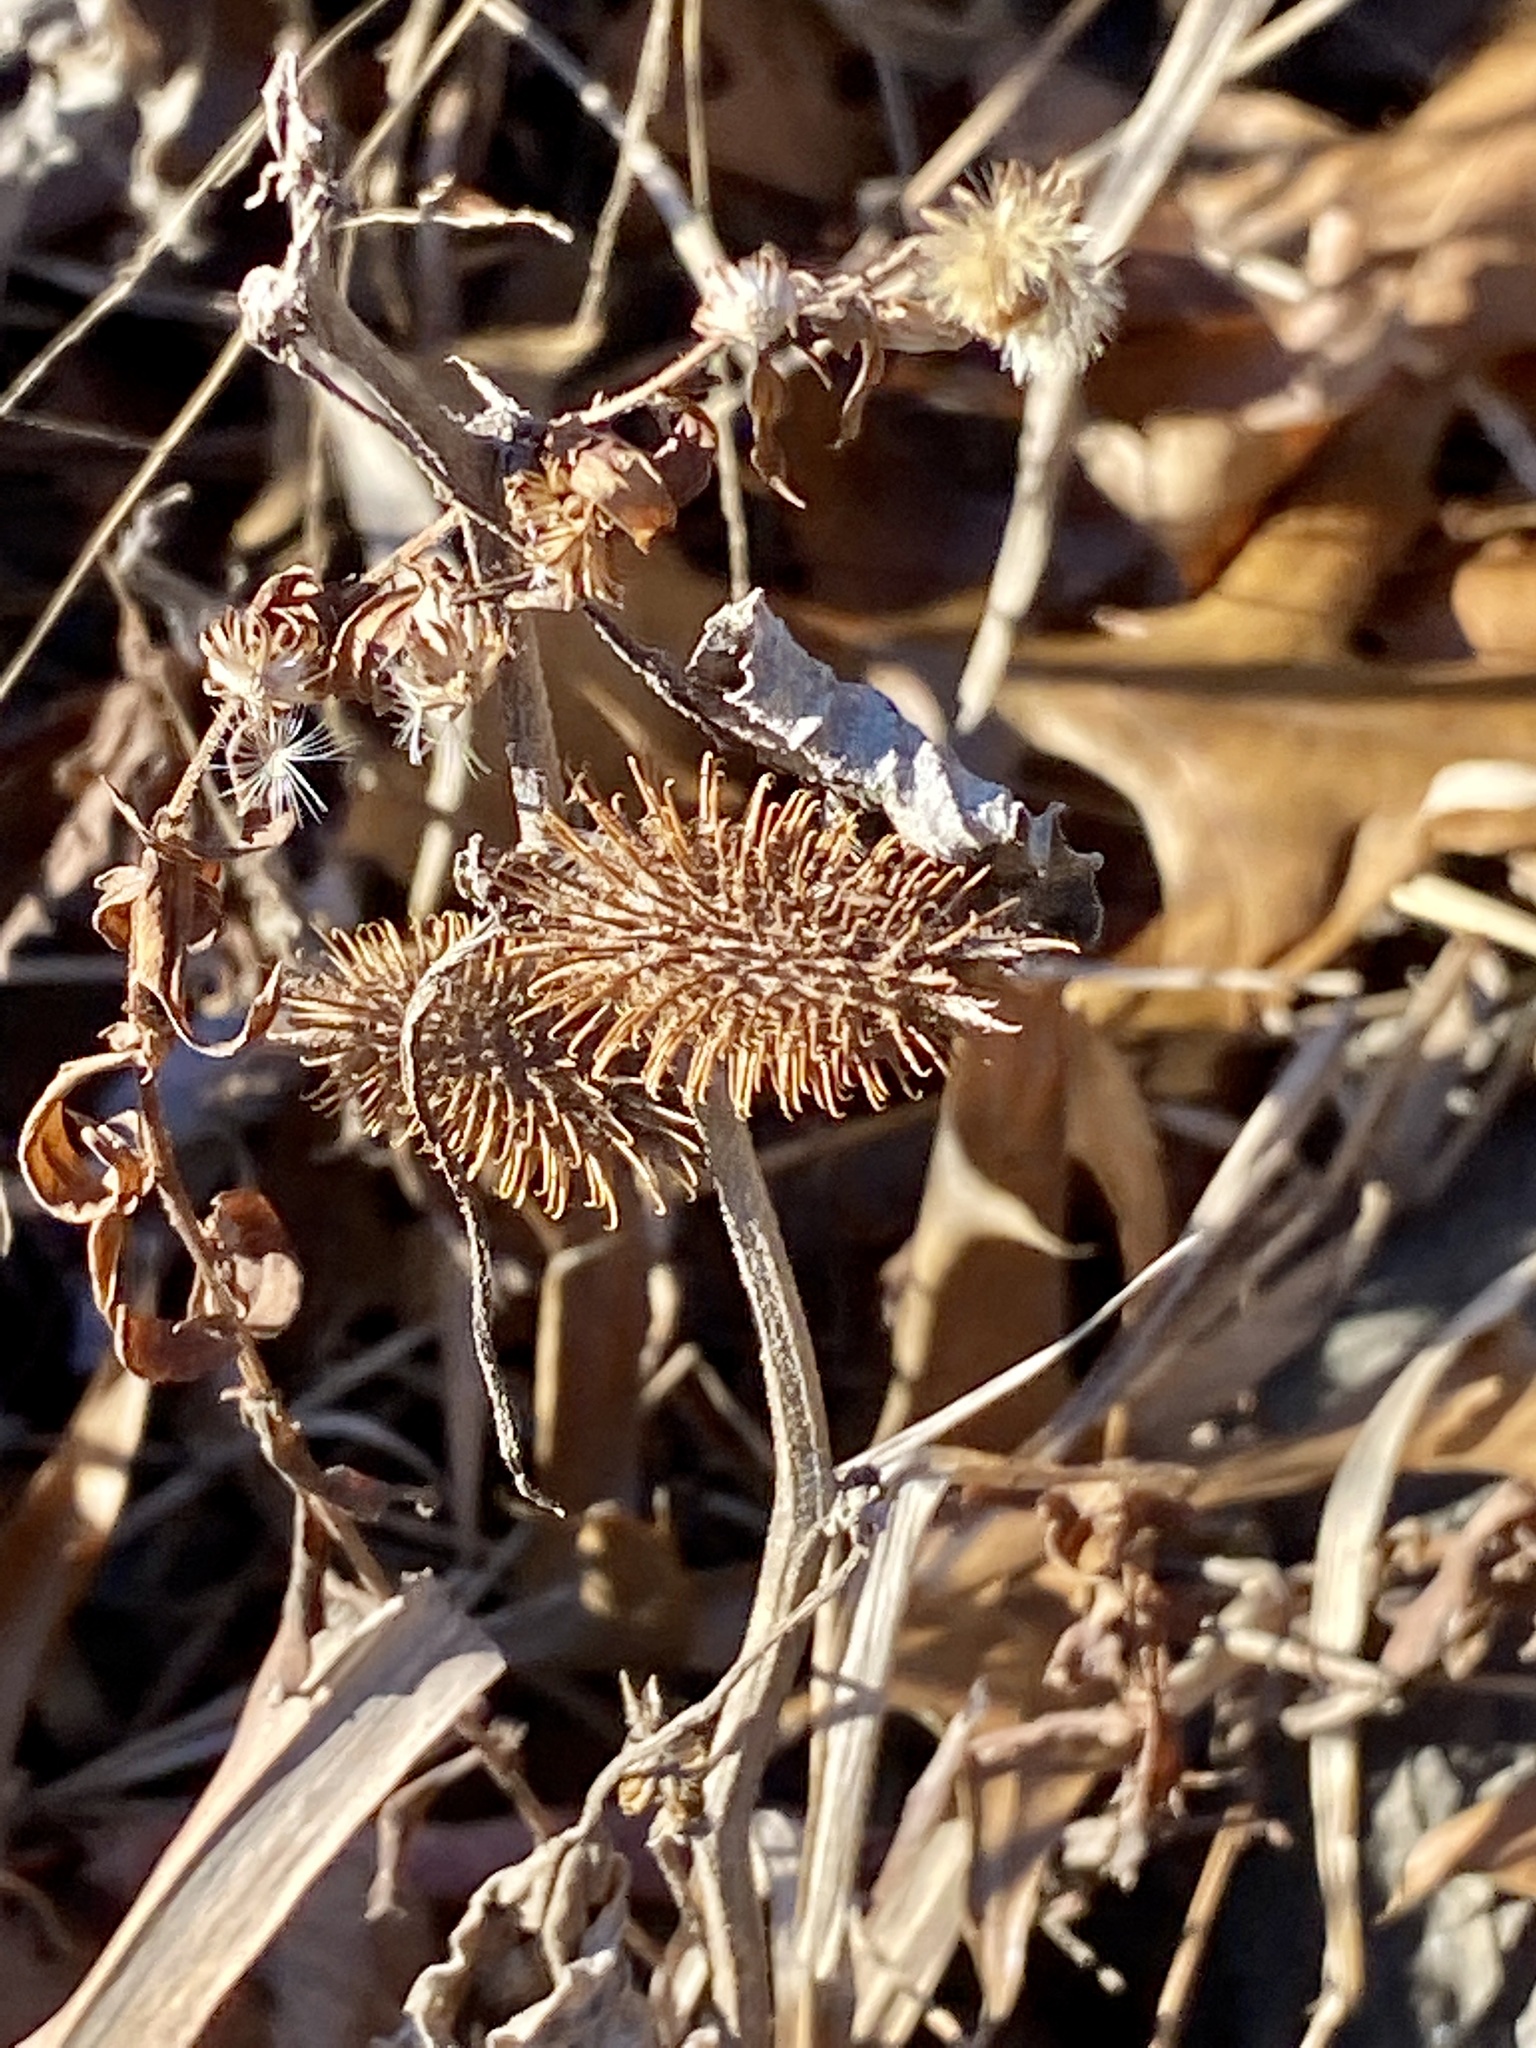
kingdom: Plantae
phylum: Tracheophyta
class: Magnoliopsida
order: Asterales
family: Asteraceae
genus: Xanthium
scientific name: Xanthium strumarium
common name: Rough cocklebur
